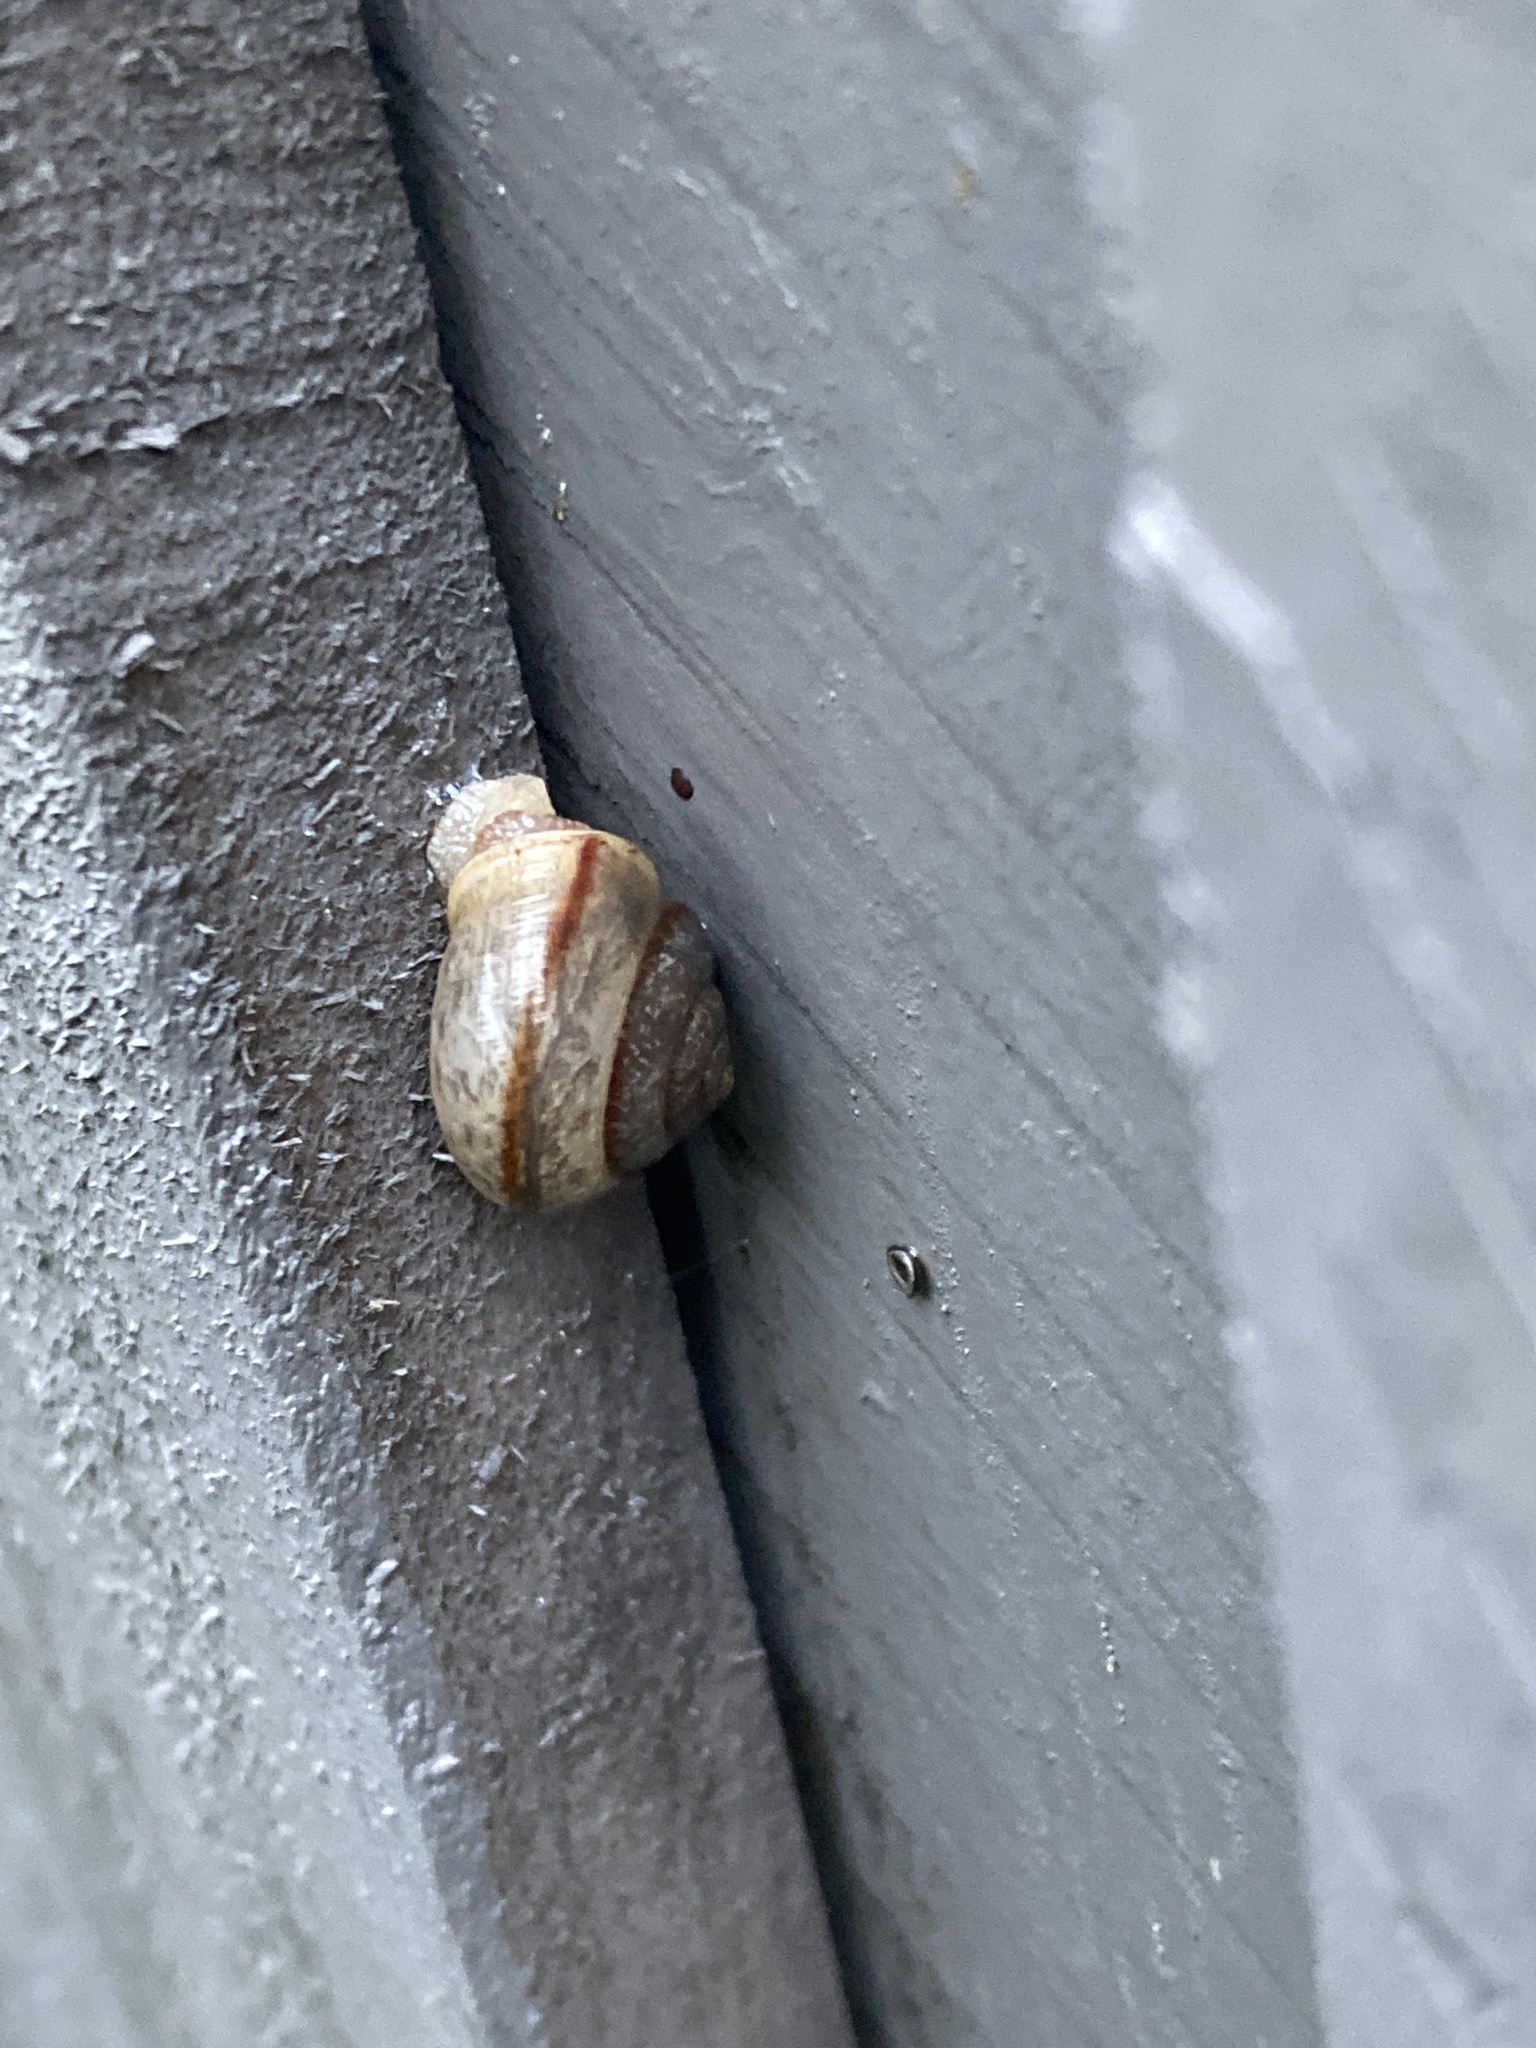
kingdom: Animalia
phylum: Mollusca
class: Gastropoda
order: Stylommatophora
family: Camaenidae
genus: Bradybaena
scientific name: Bradybaena similaris
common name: Asian trampsnail
